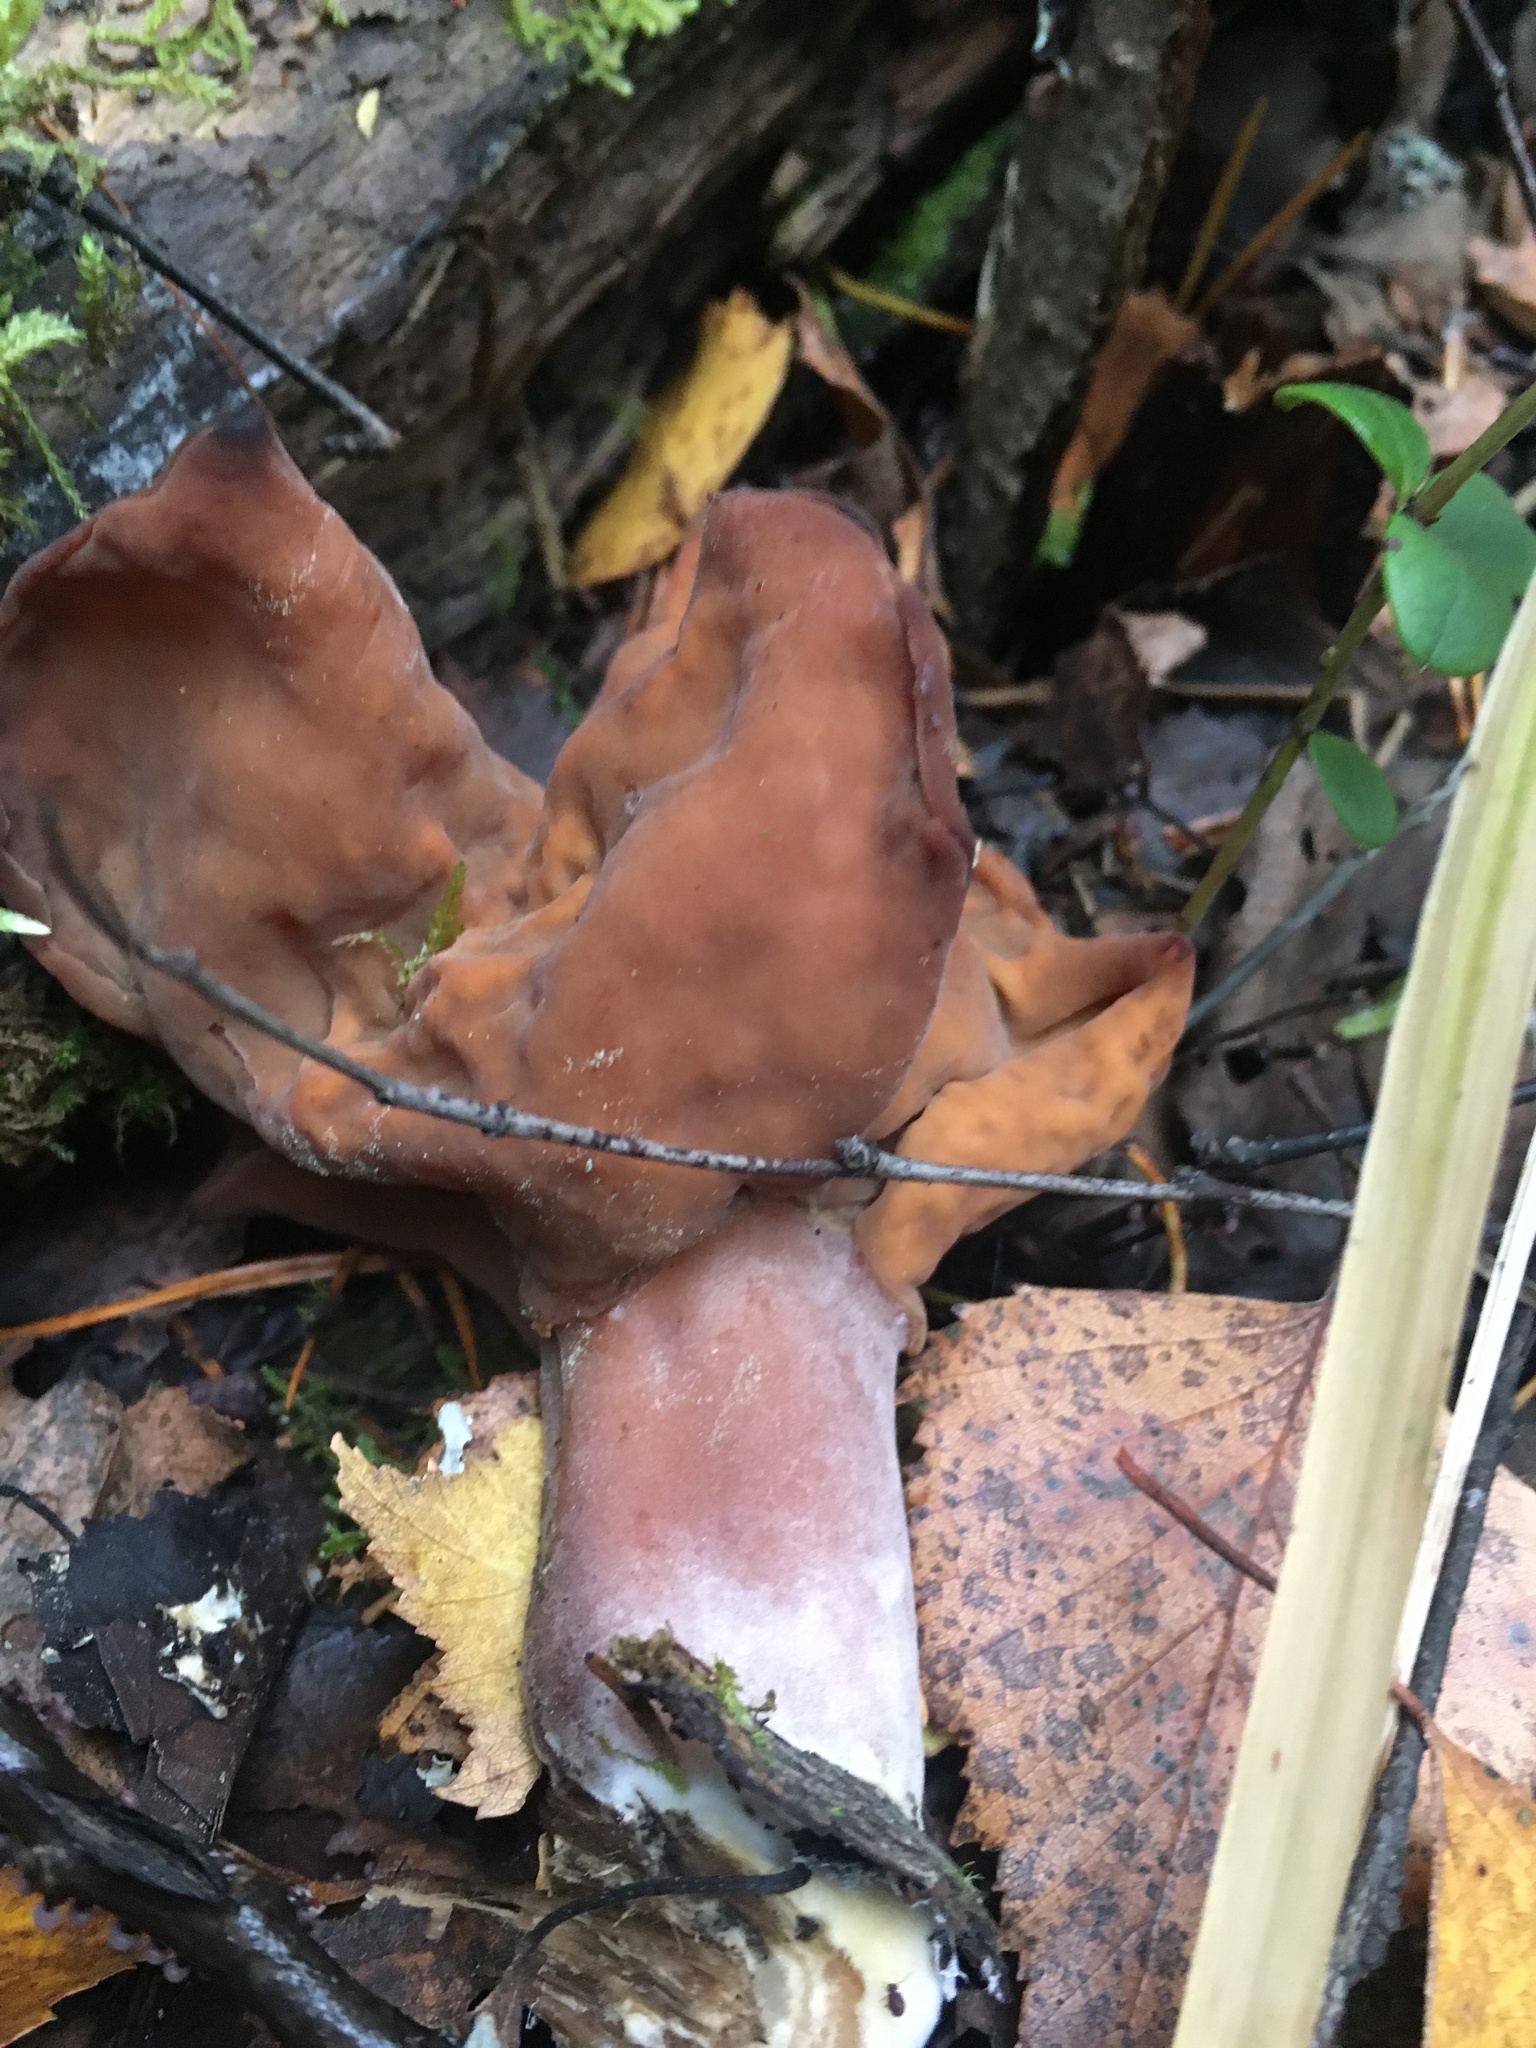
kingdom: Fungi
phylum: Ascomycota
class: Pezizomycetes
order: Pezizales
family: Discinaceae
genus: Gyromitra
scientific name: Gyromitra infula
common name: Pouched false morel
